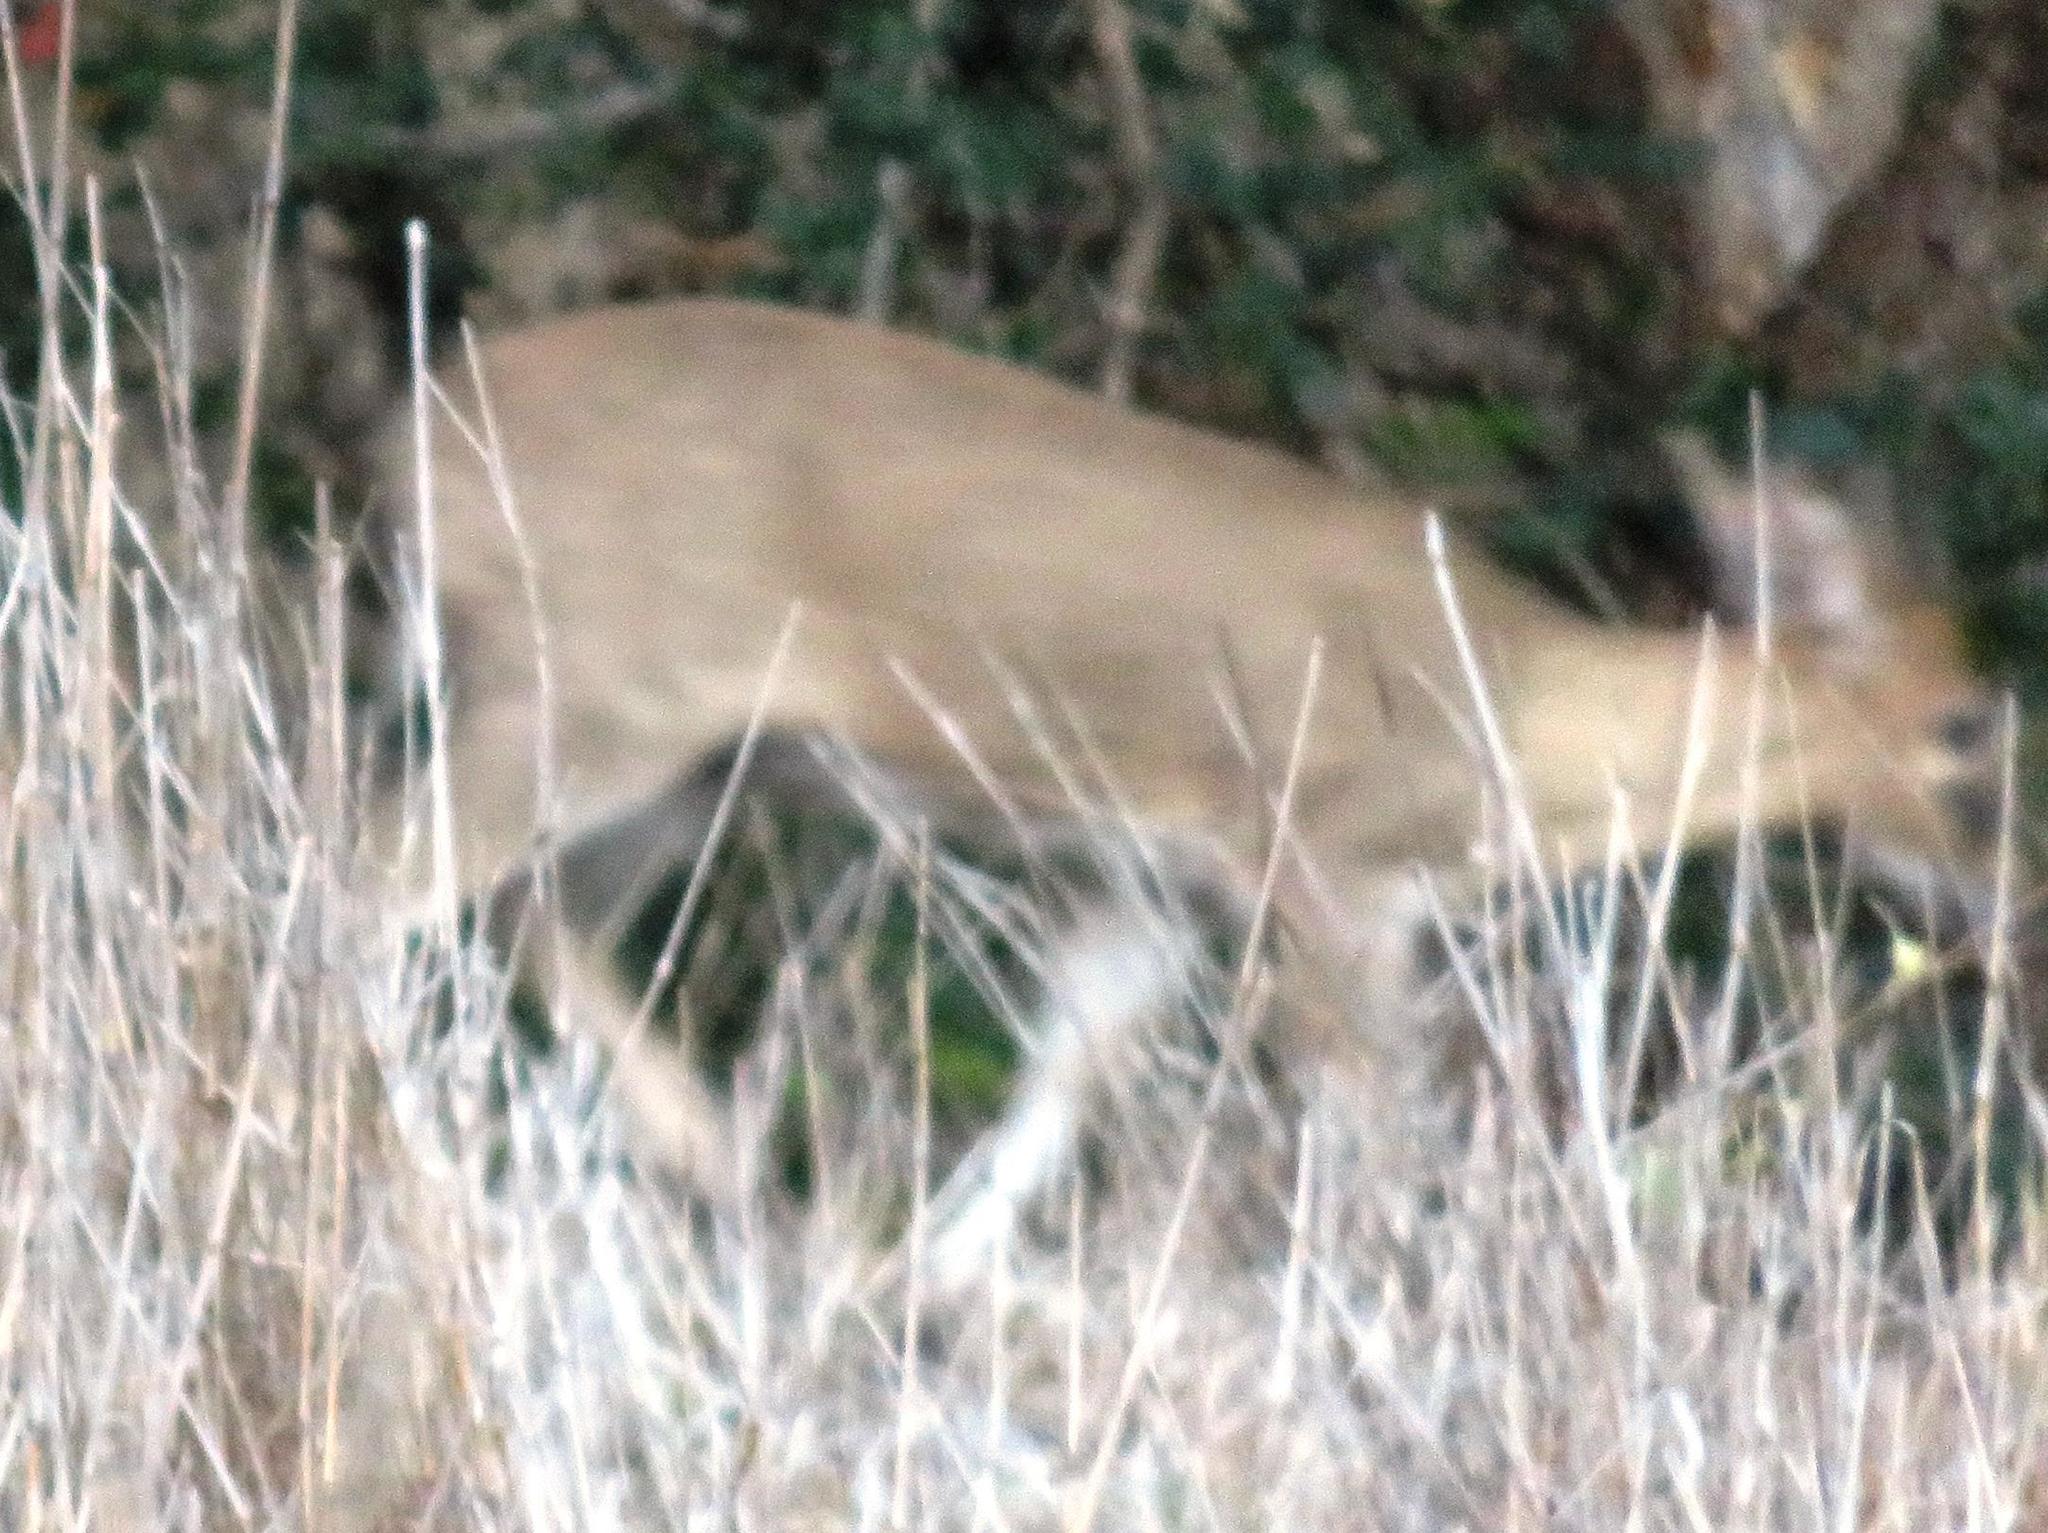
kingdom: Animalia
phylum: Chordata
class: Mammalia
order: Artiodactyla
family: Bovidae
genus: Sylvicapra
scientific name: Sylvicapra grimmia
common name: Bush duiker
